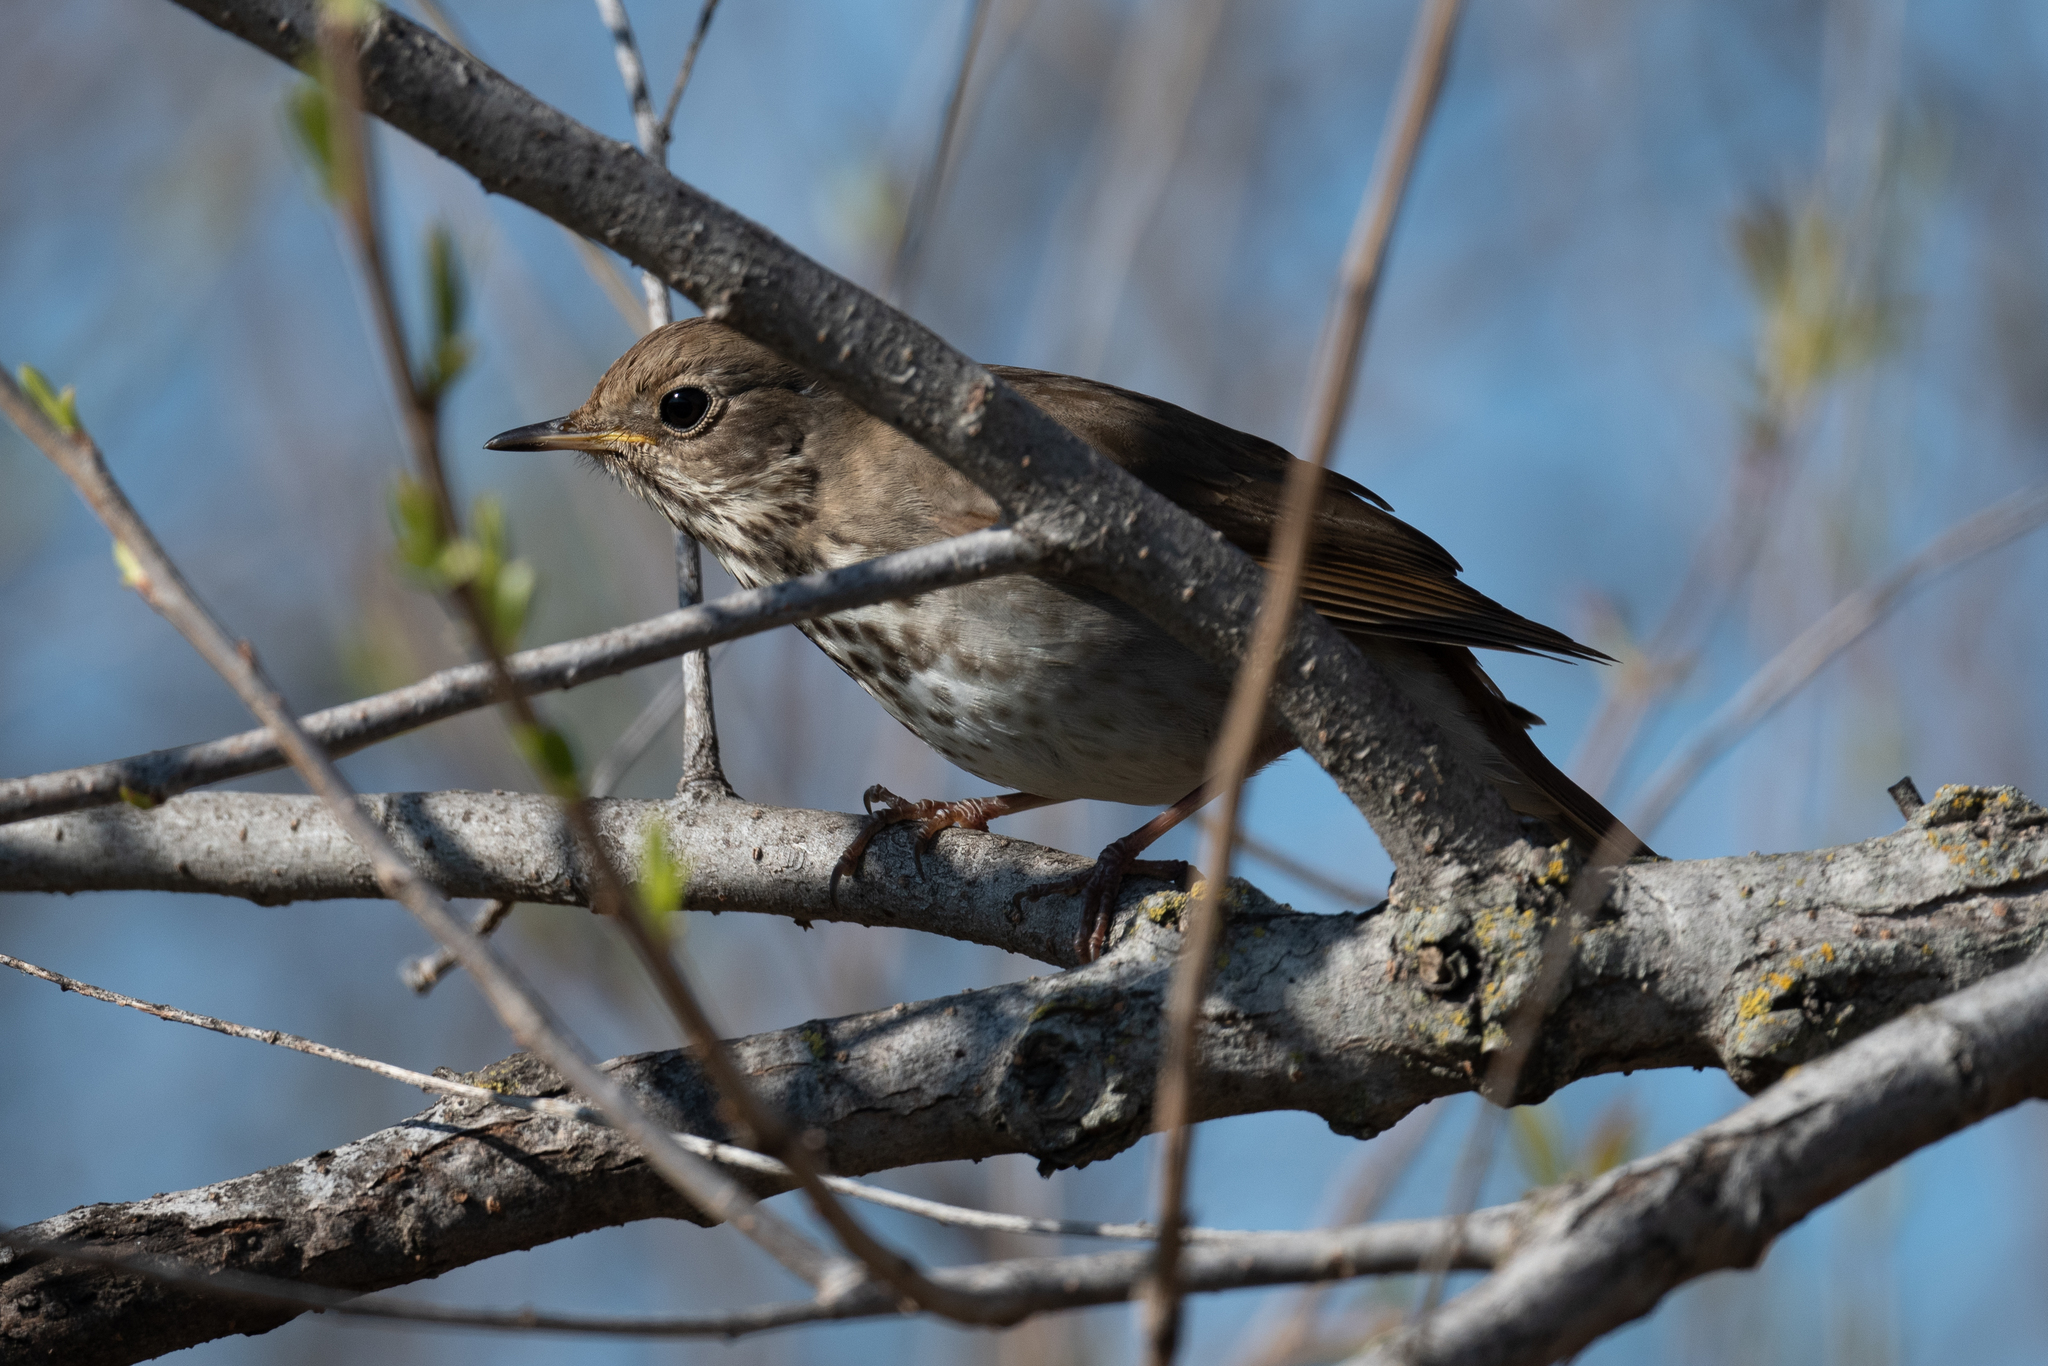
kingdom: Animalia
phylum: Chordata
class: Aves
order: Passeriformes
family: Turdidae
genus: Catharus
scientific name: Catharus guttatus
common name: Hermit thrush
